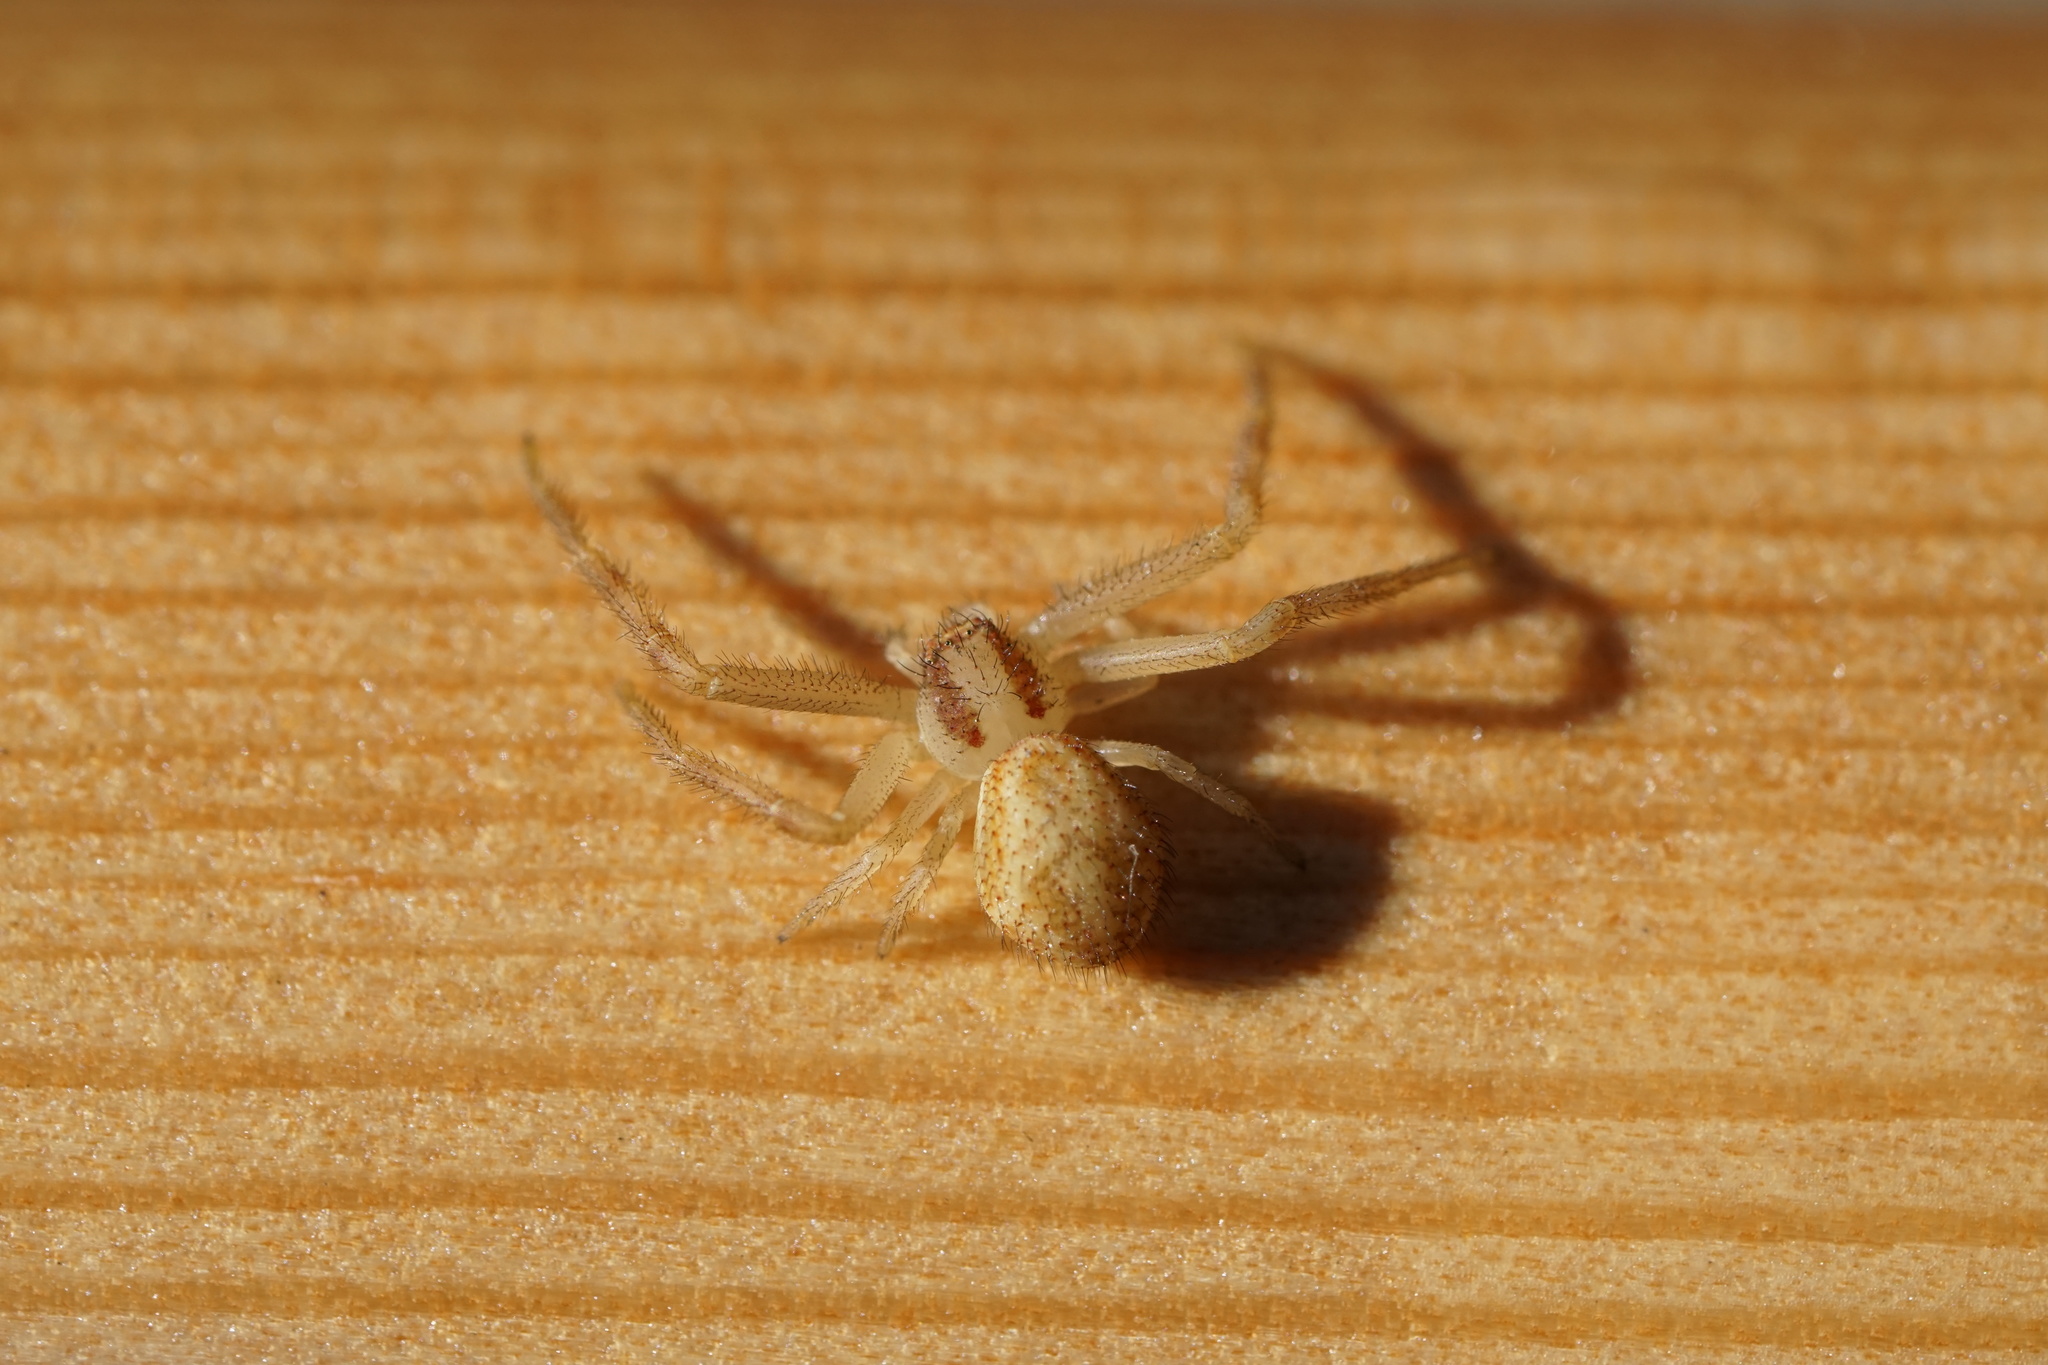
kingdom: Animalia
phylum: Arthropoda
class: Arachnida
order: Araneae
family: Thomisidae
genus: Mecaphesa
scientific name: Mecaphesa asperata
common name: Crab spiders
